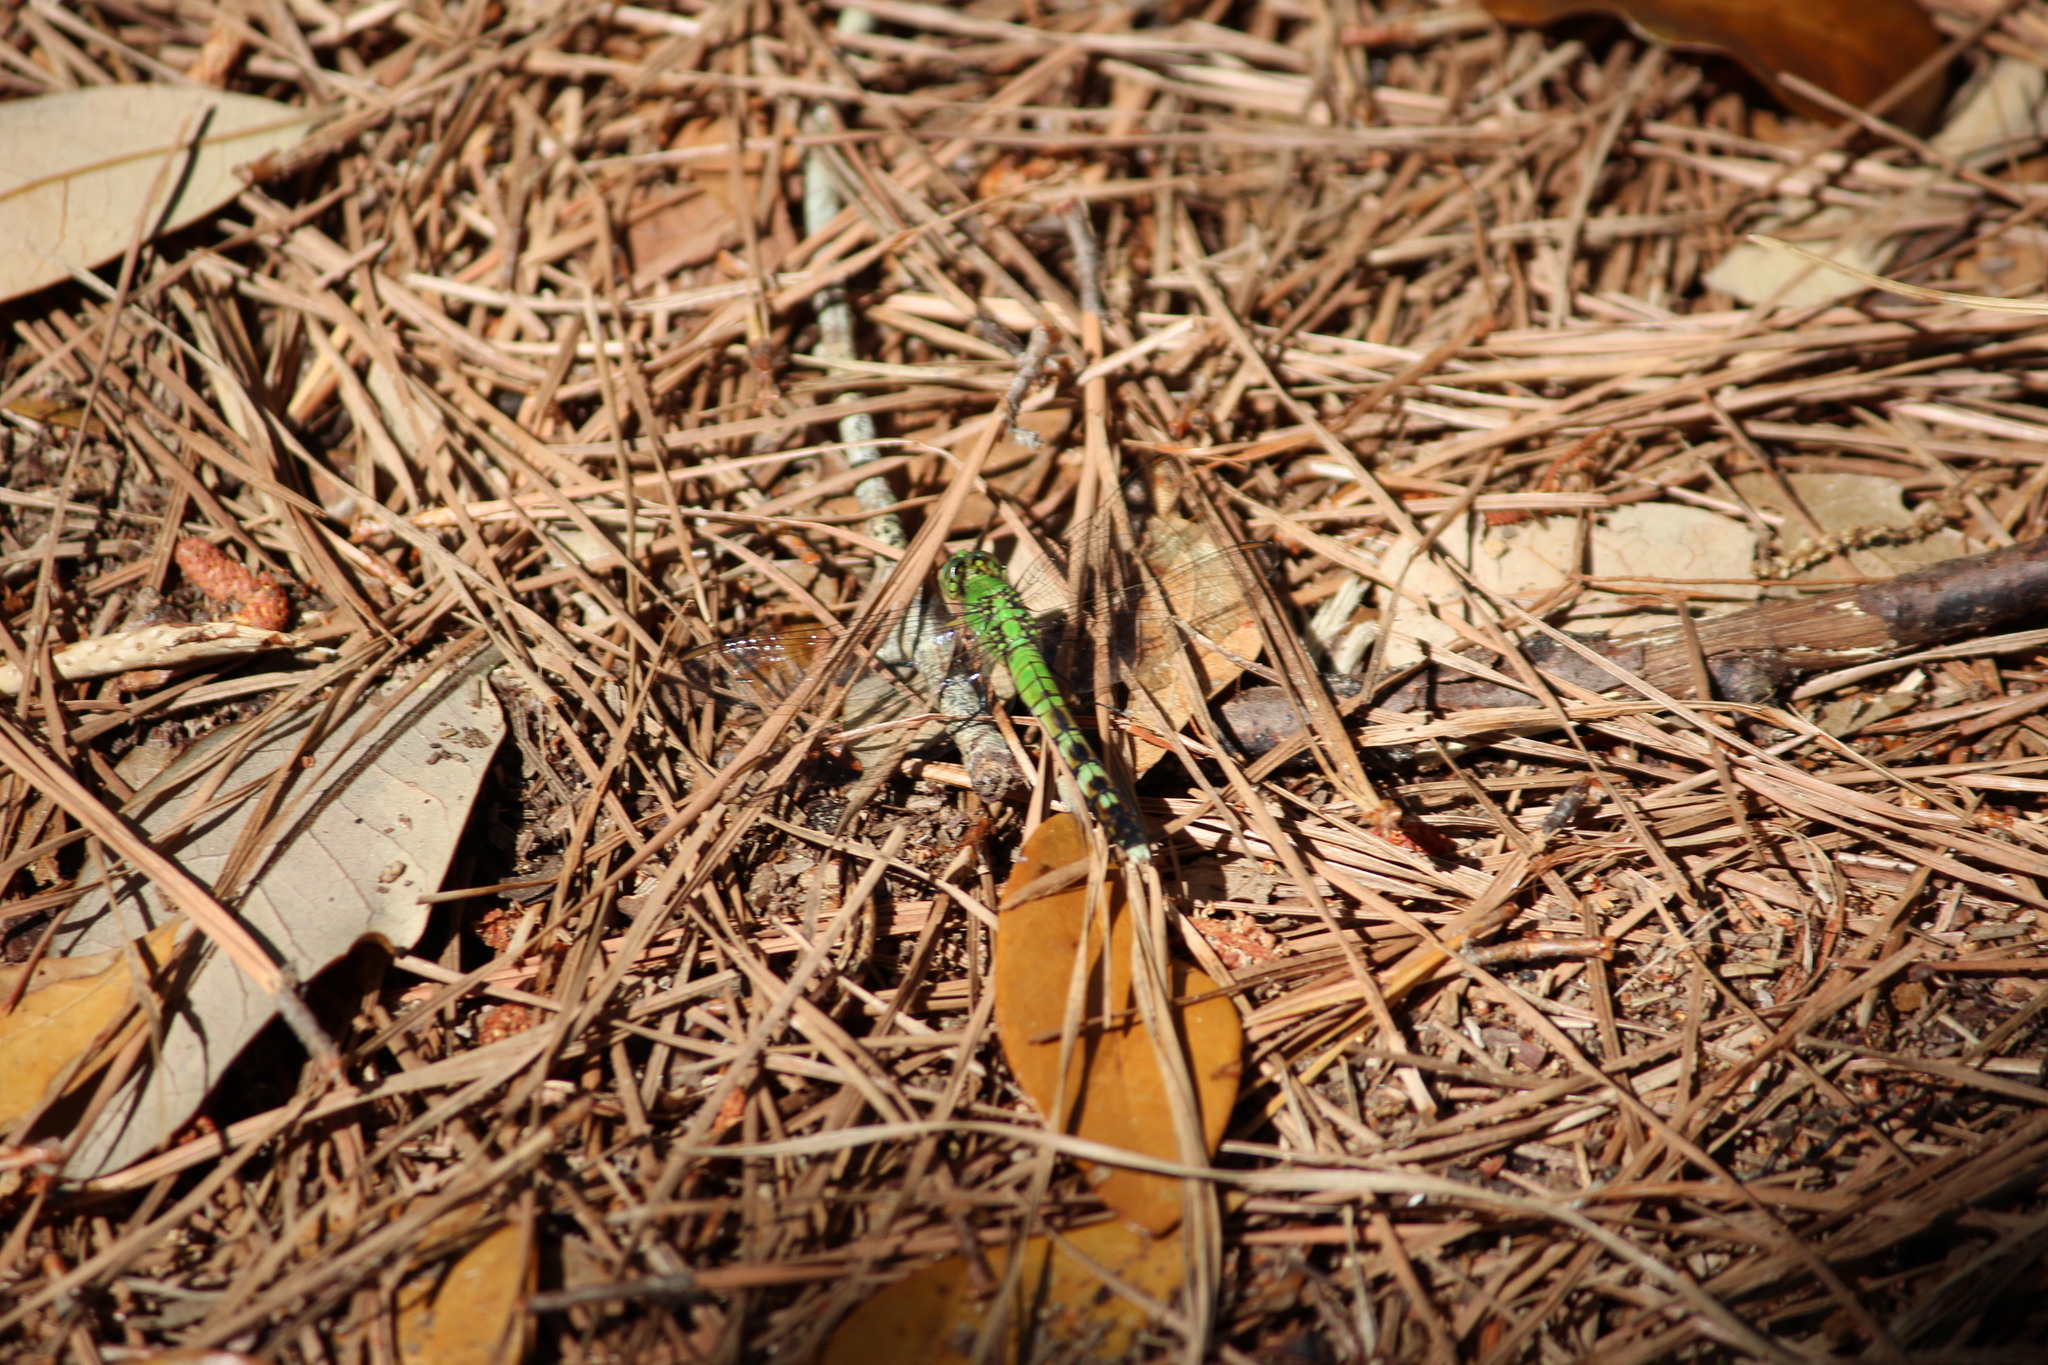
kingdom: Animalia
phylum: Arthropoda
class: Insecta
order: Odonata
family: Libellulidae
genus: Erythemis
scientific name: Erythemis simplicicollis
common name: Eastern pondhawk
